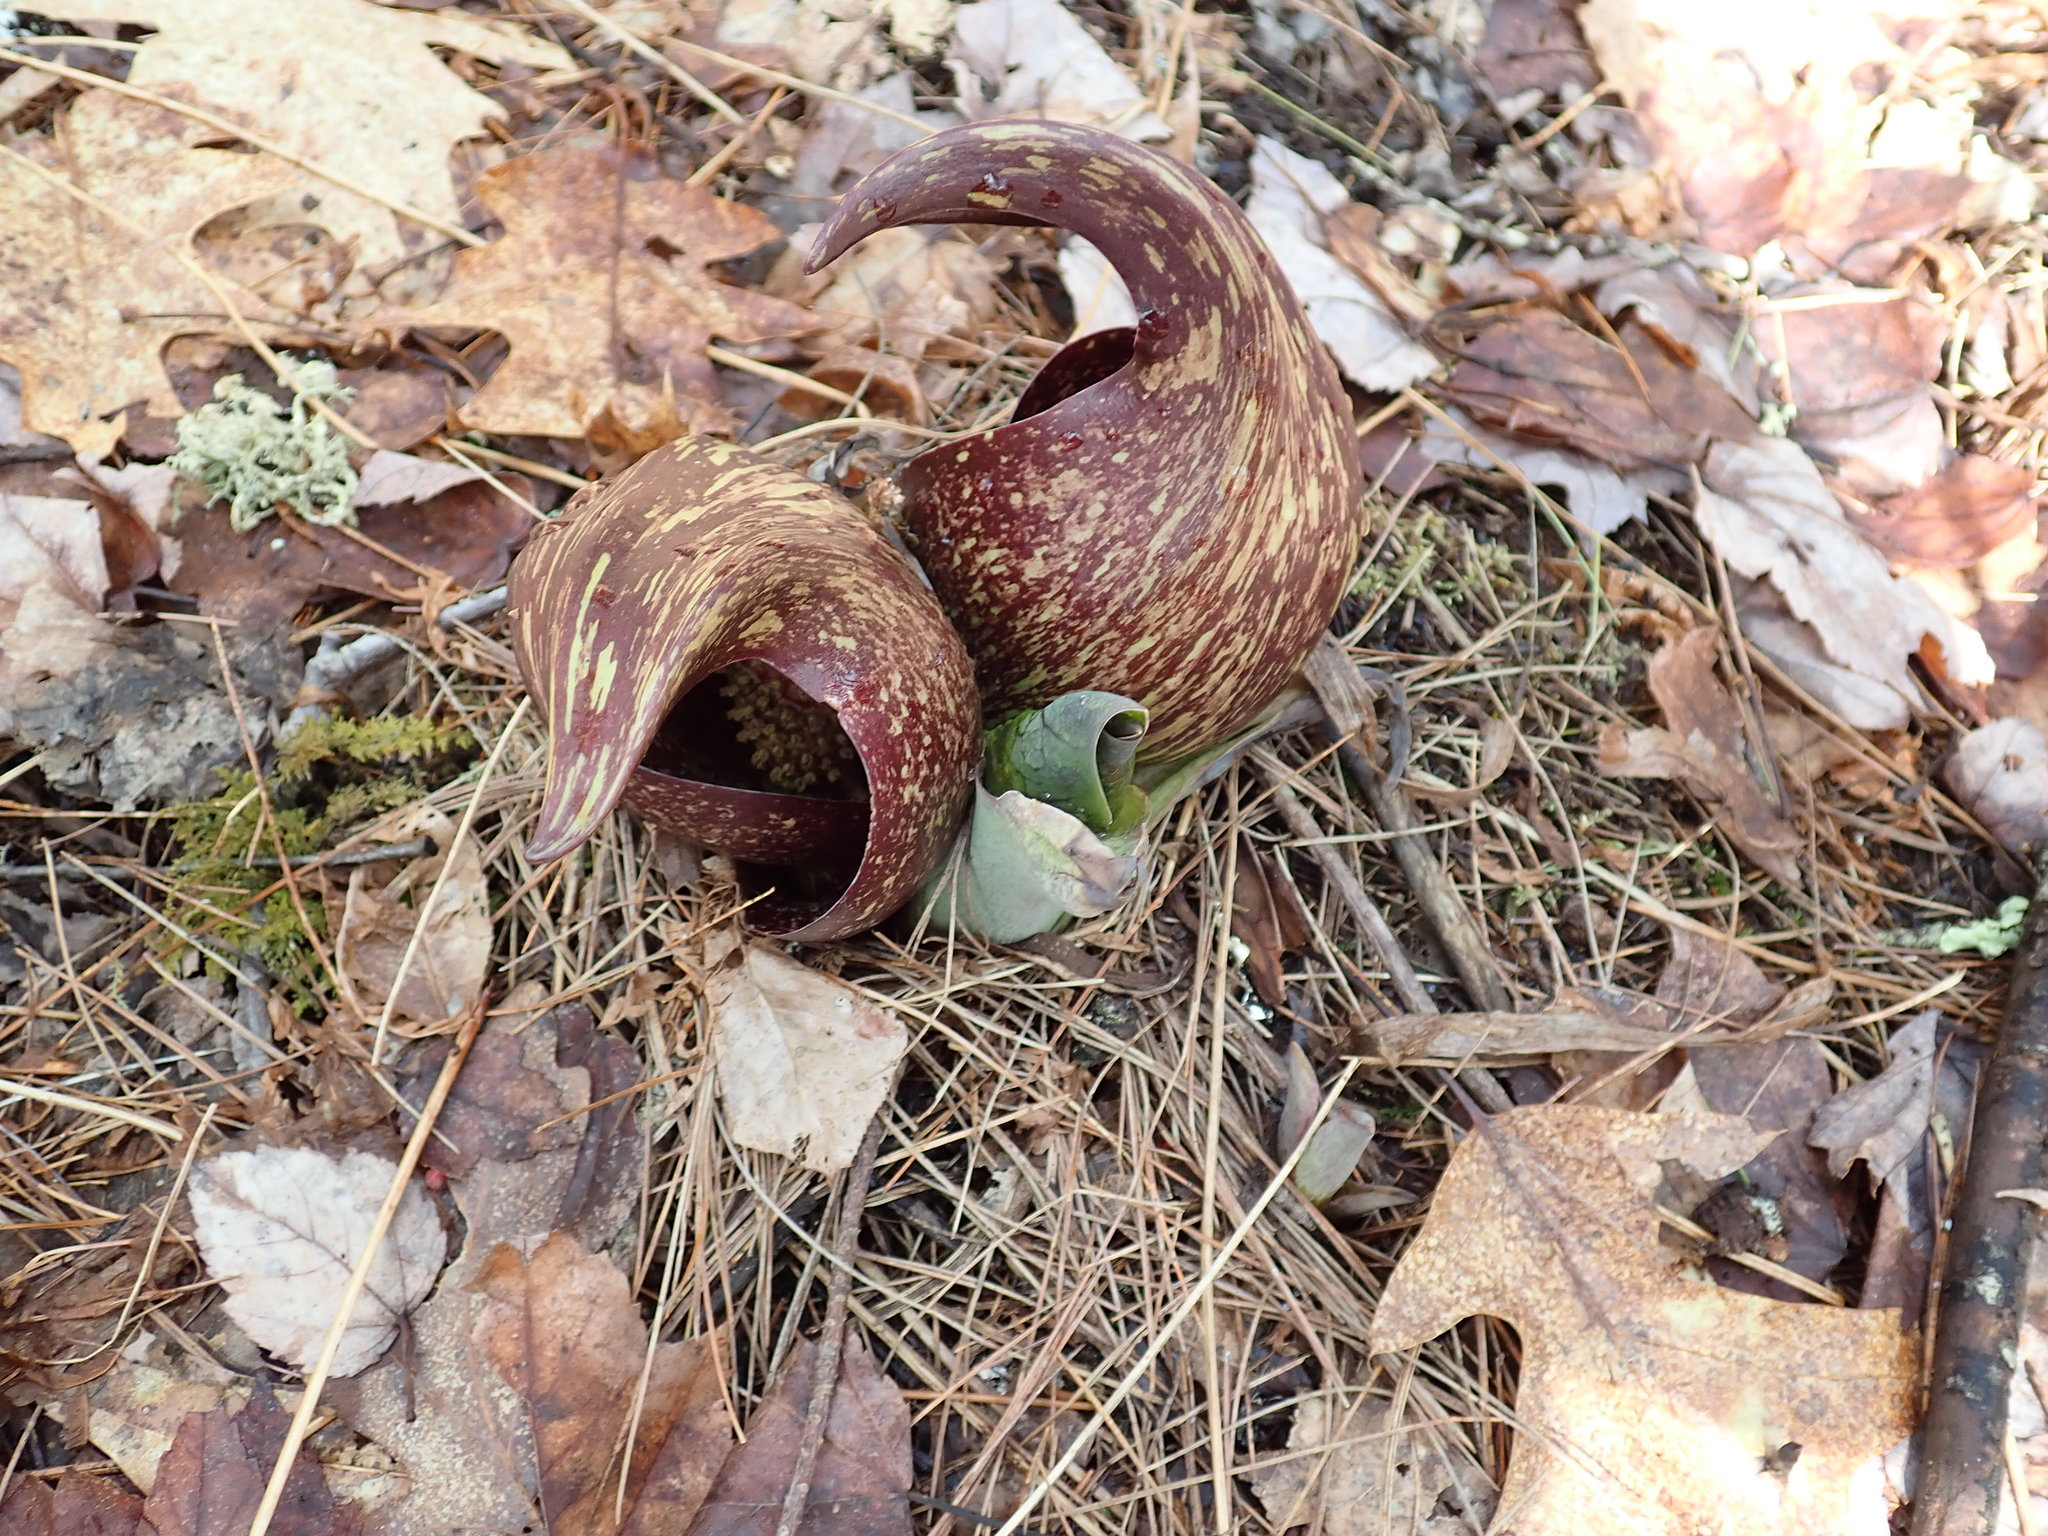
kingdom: Plantae
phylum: Tracheophyta
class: Liliopsida
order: Alismatales
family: Araceae
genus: Symplocarpus
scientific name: Symplocarpus foetidus
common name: Eastern skunk cabbage
